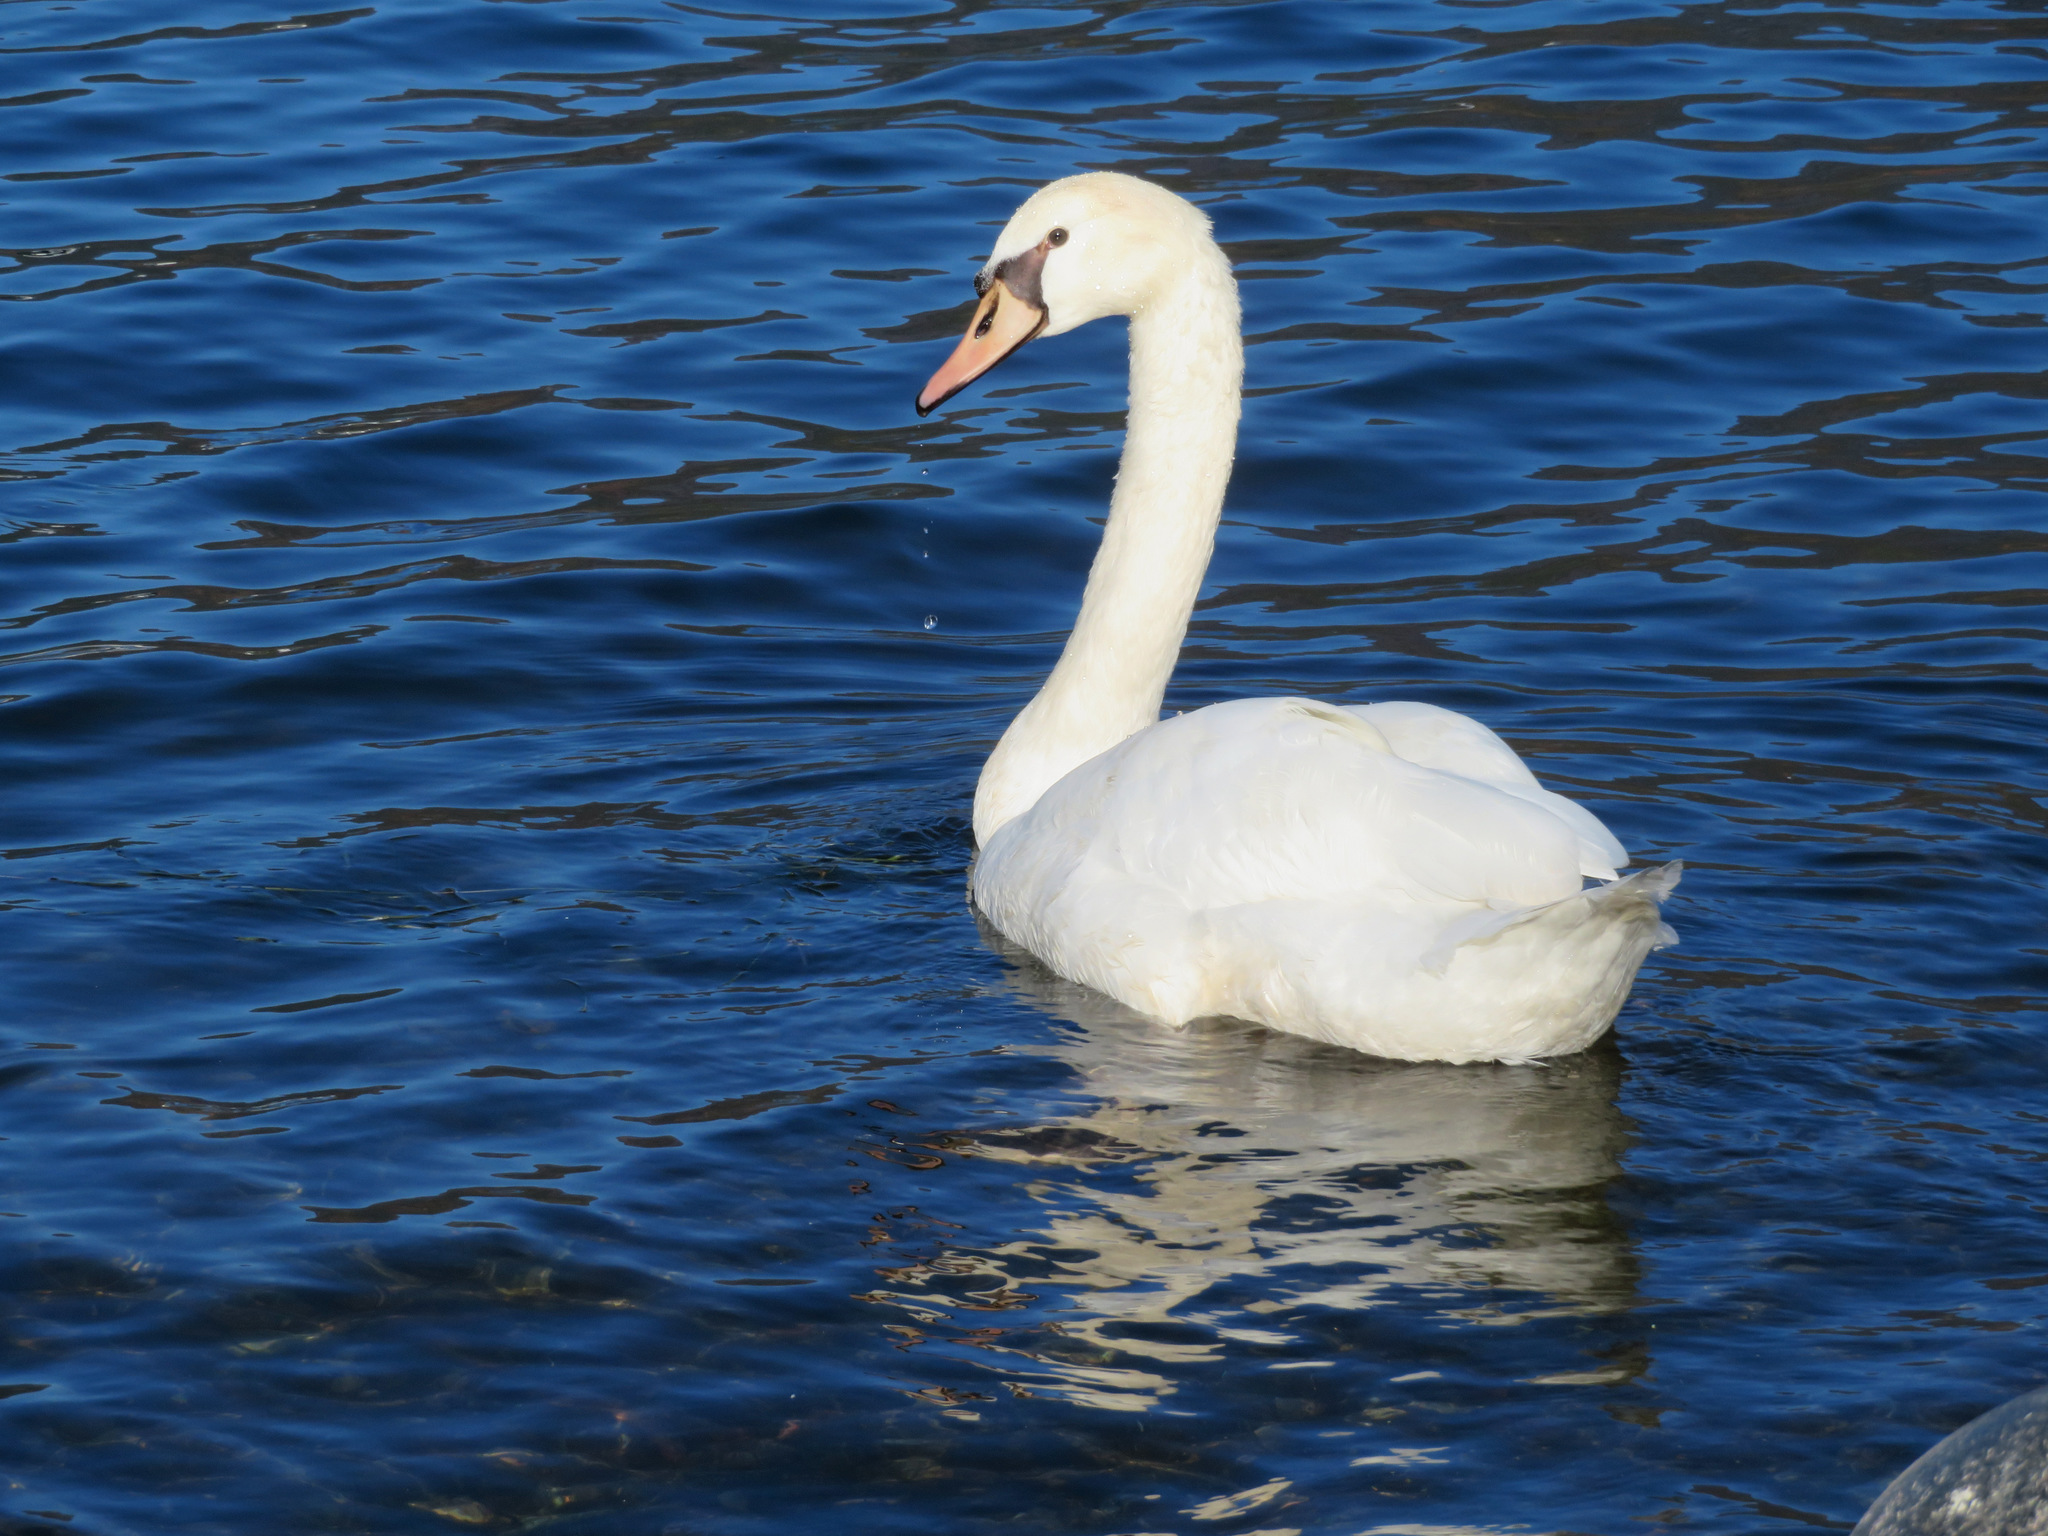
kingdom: Animalia
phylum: Chordata
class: Aves
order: Anseriformes
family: Anatidae
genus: Cygnus
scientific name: Cygnus olor
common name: Mute swan
